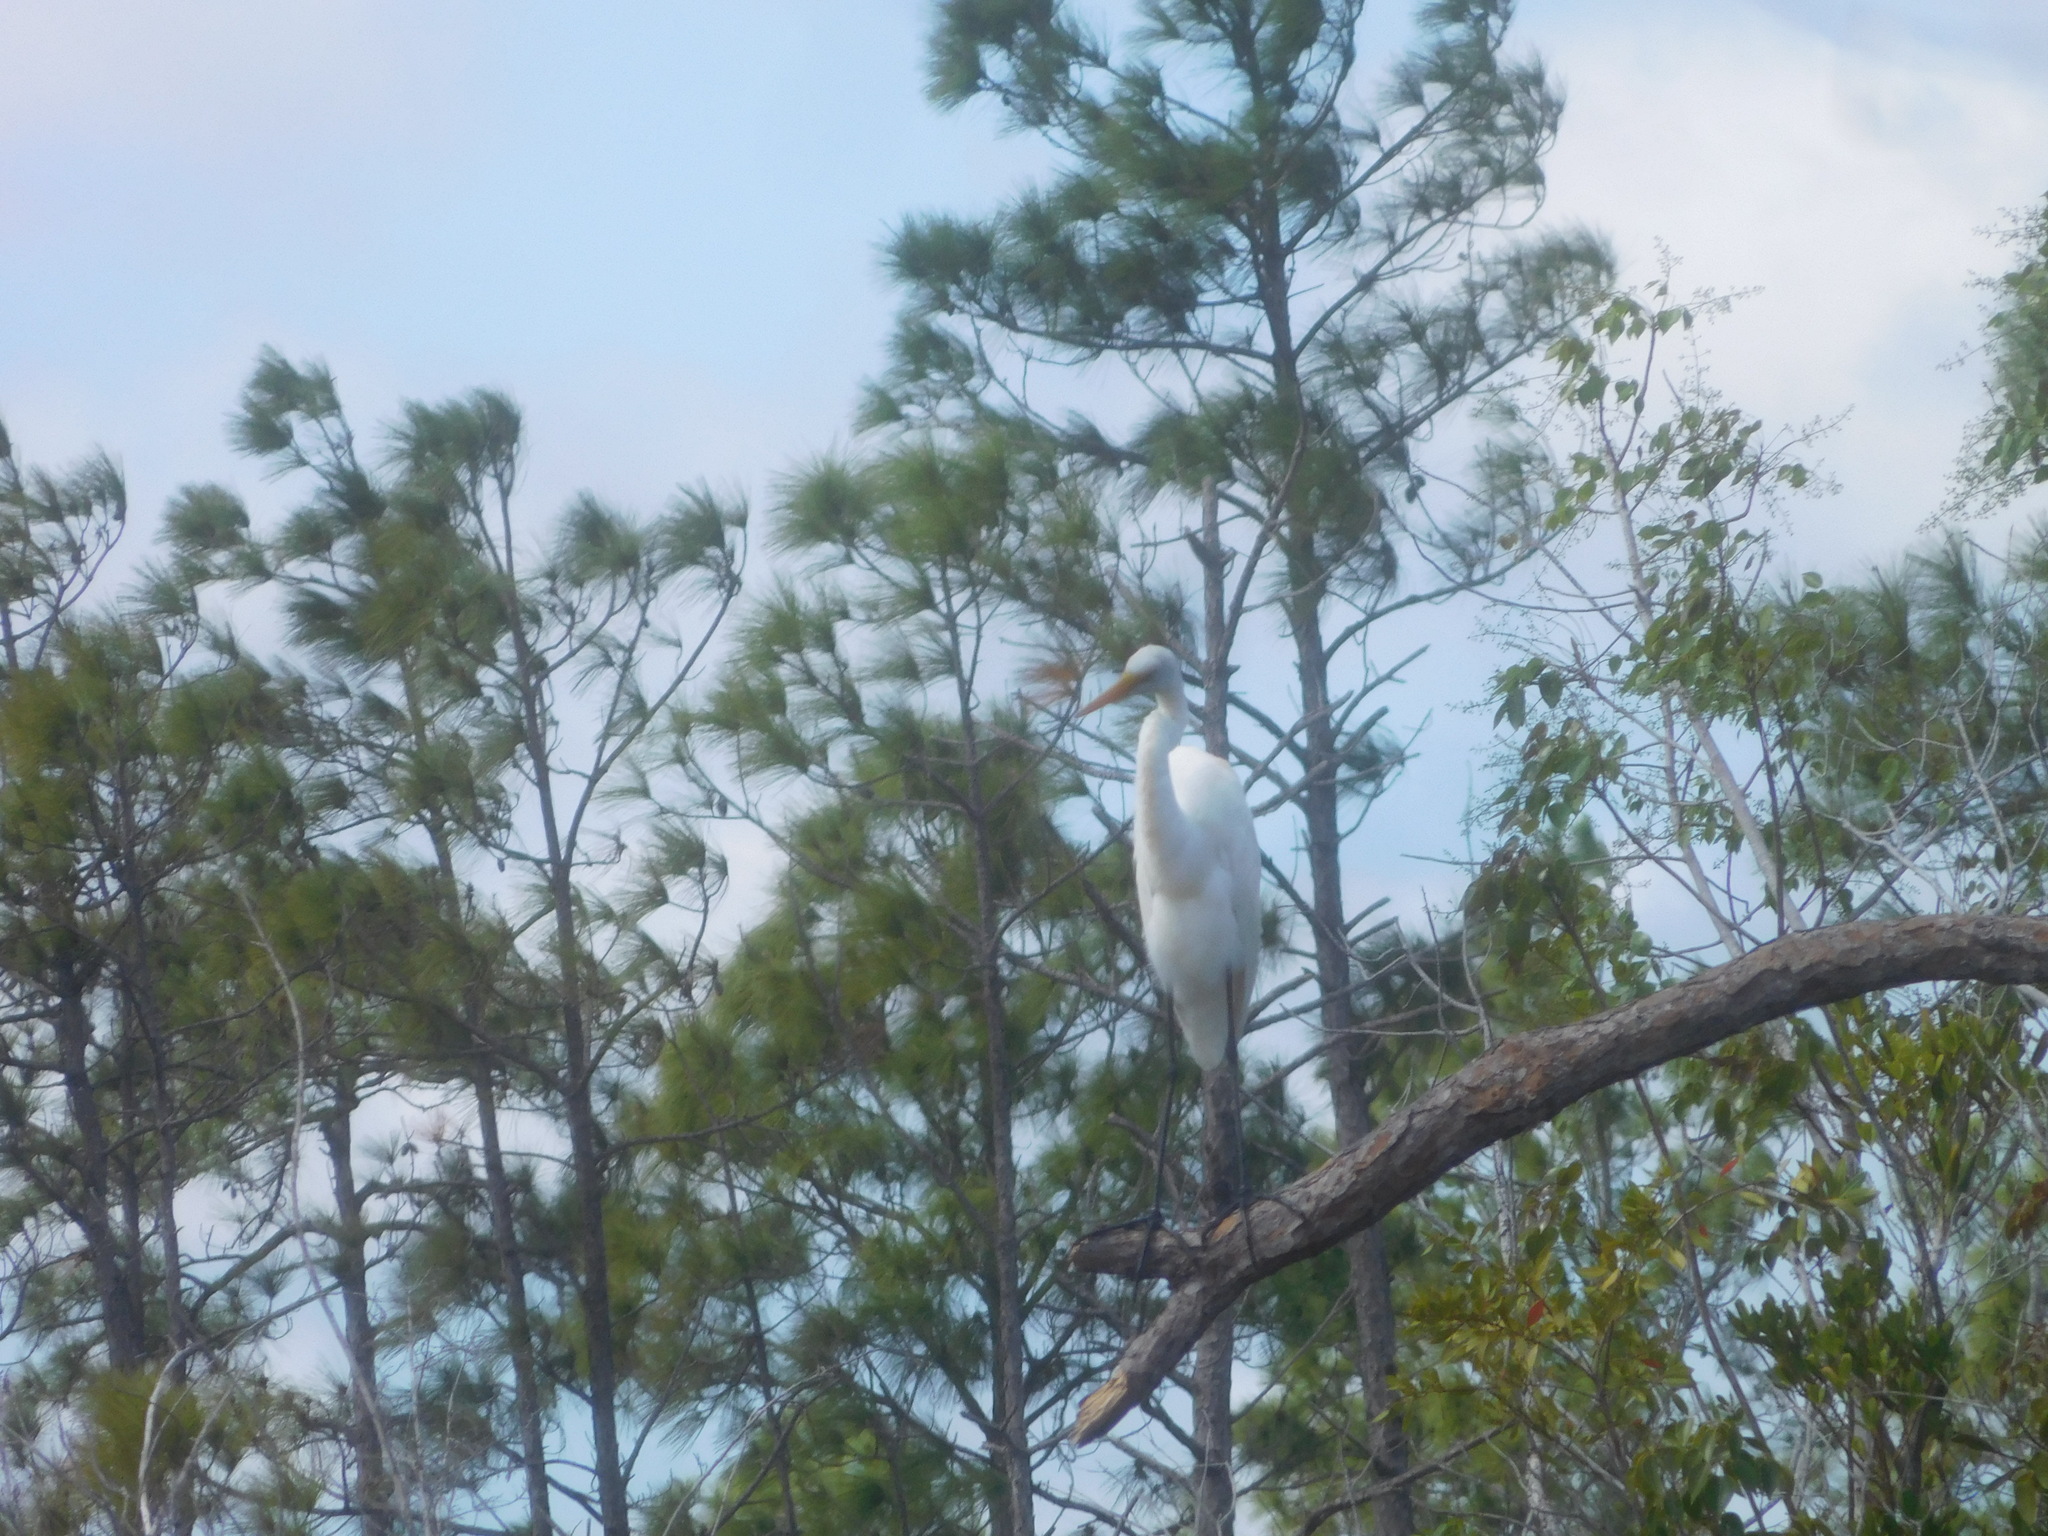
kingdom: Animalia
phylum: Chordata
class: Aves
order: Pelecaniformes
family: Ardeidae
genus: Ardea
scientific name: Ardea alba
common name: Great egret
